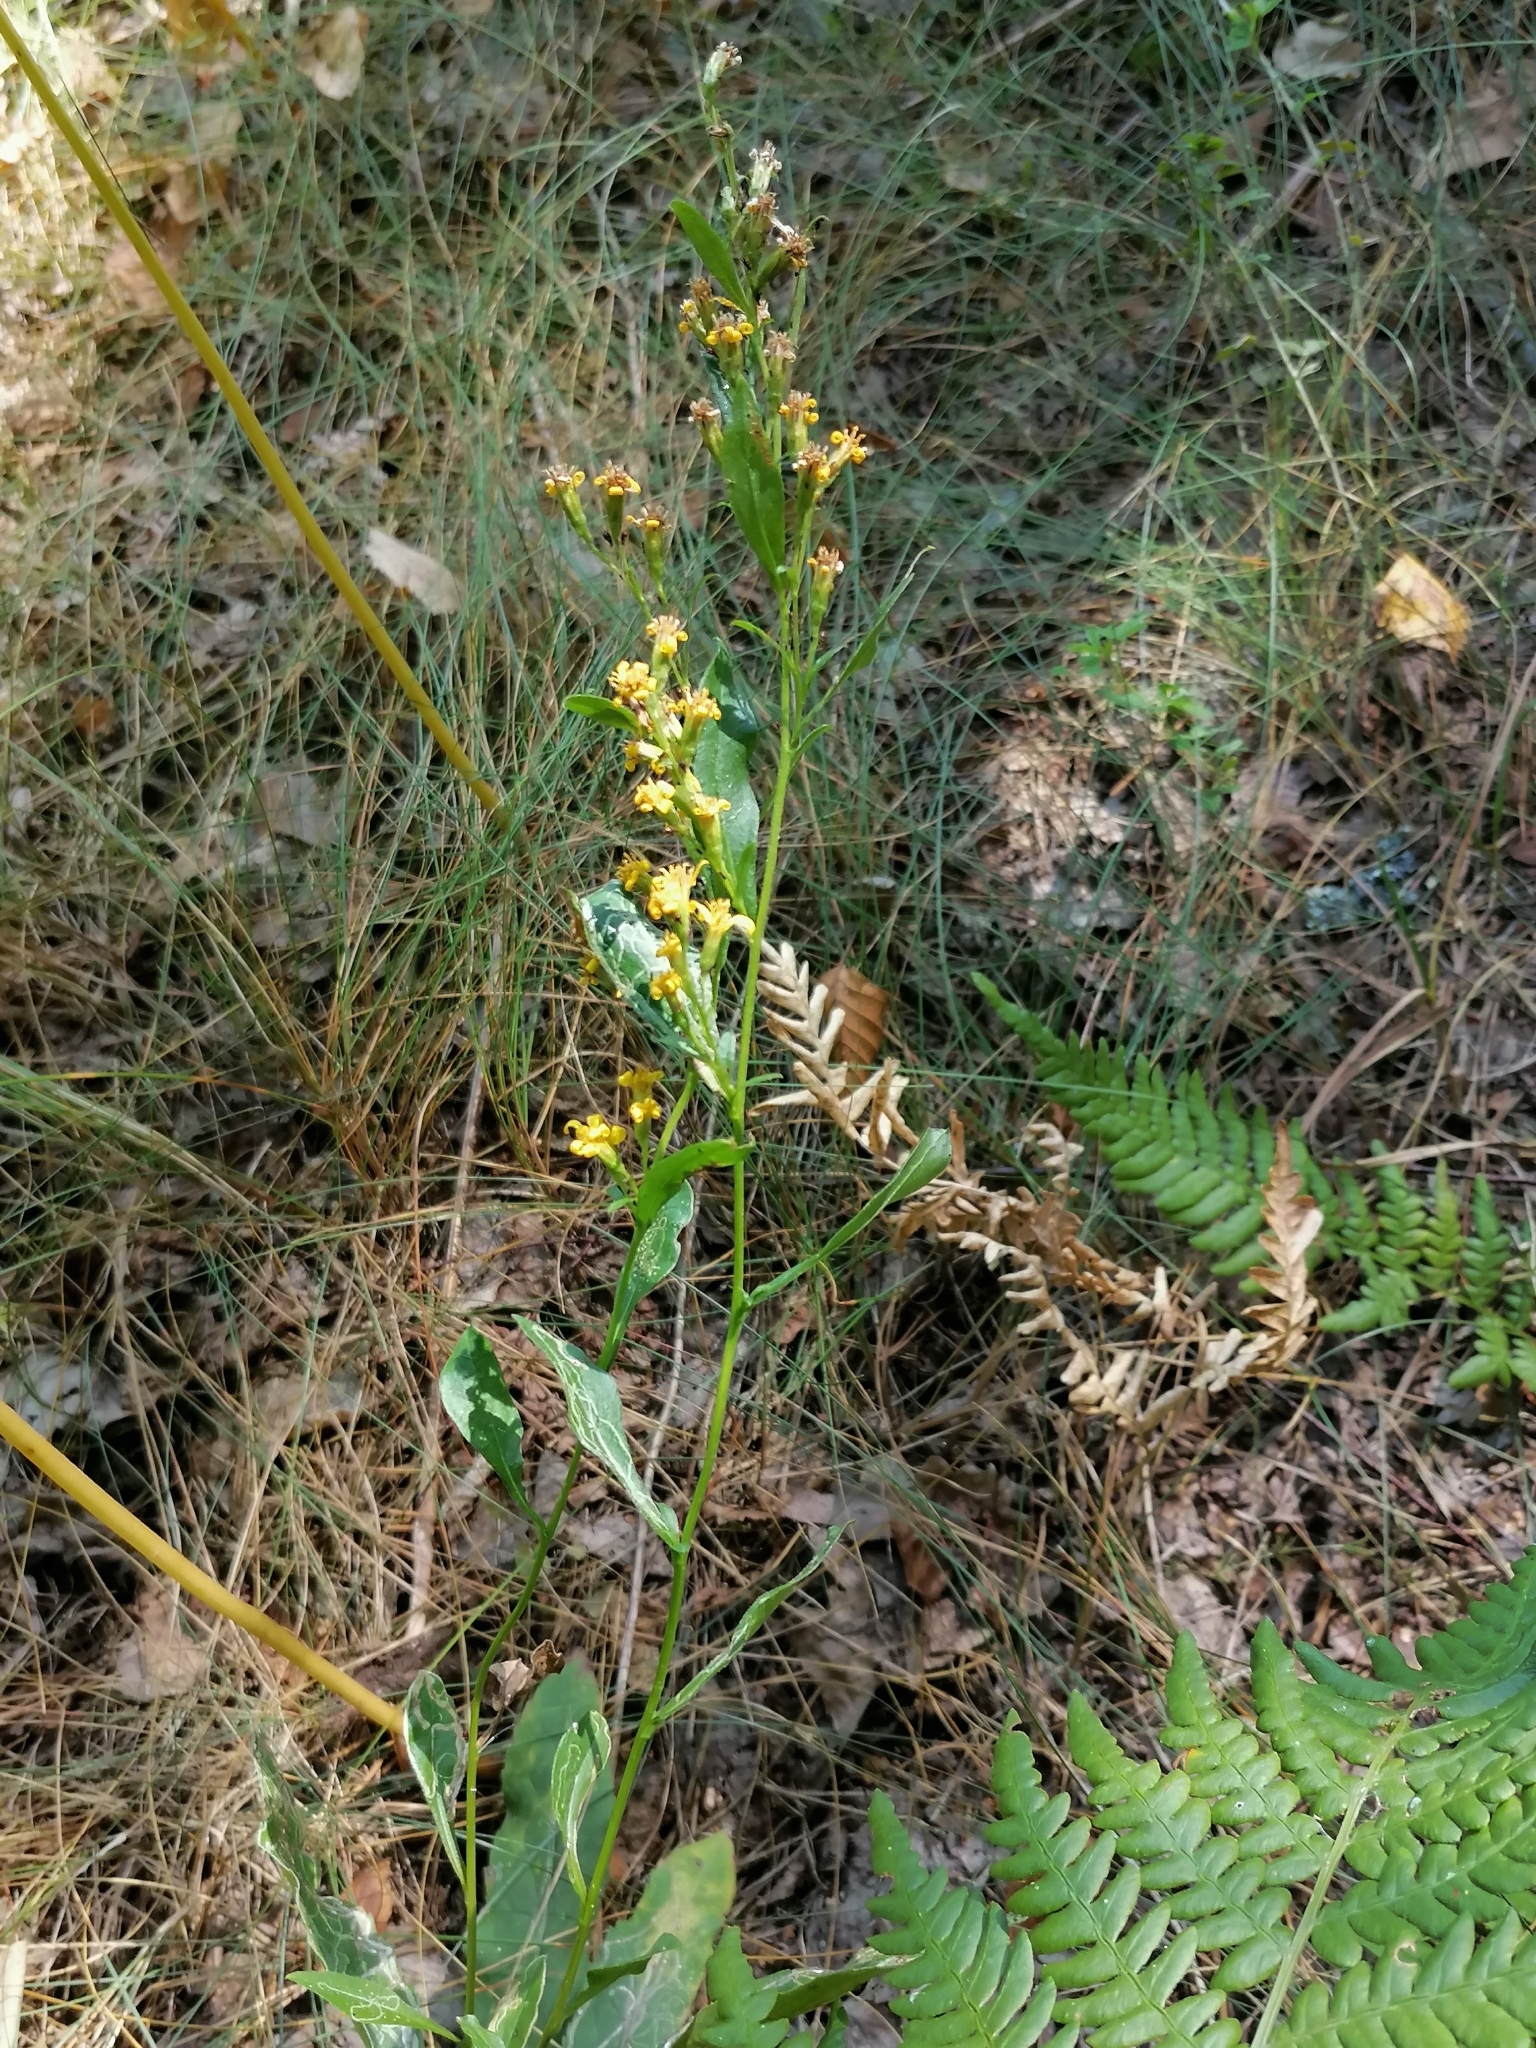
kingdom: Plantae
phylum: Tracheophyta
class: Magnoliopsida
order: Asterales
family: Asteraceae
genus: Solidago
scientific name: Solidago virgaurea
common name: Goldenrod
